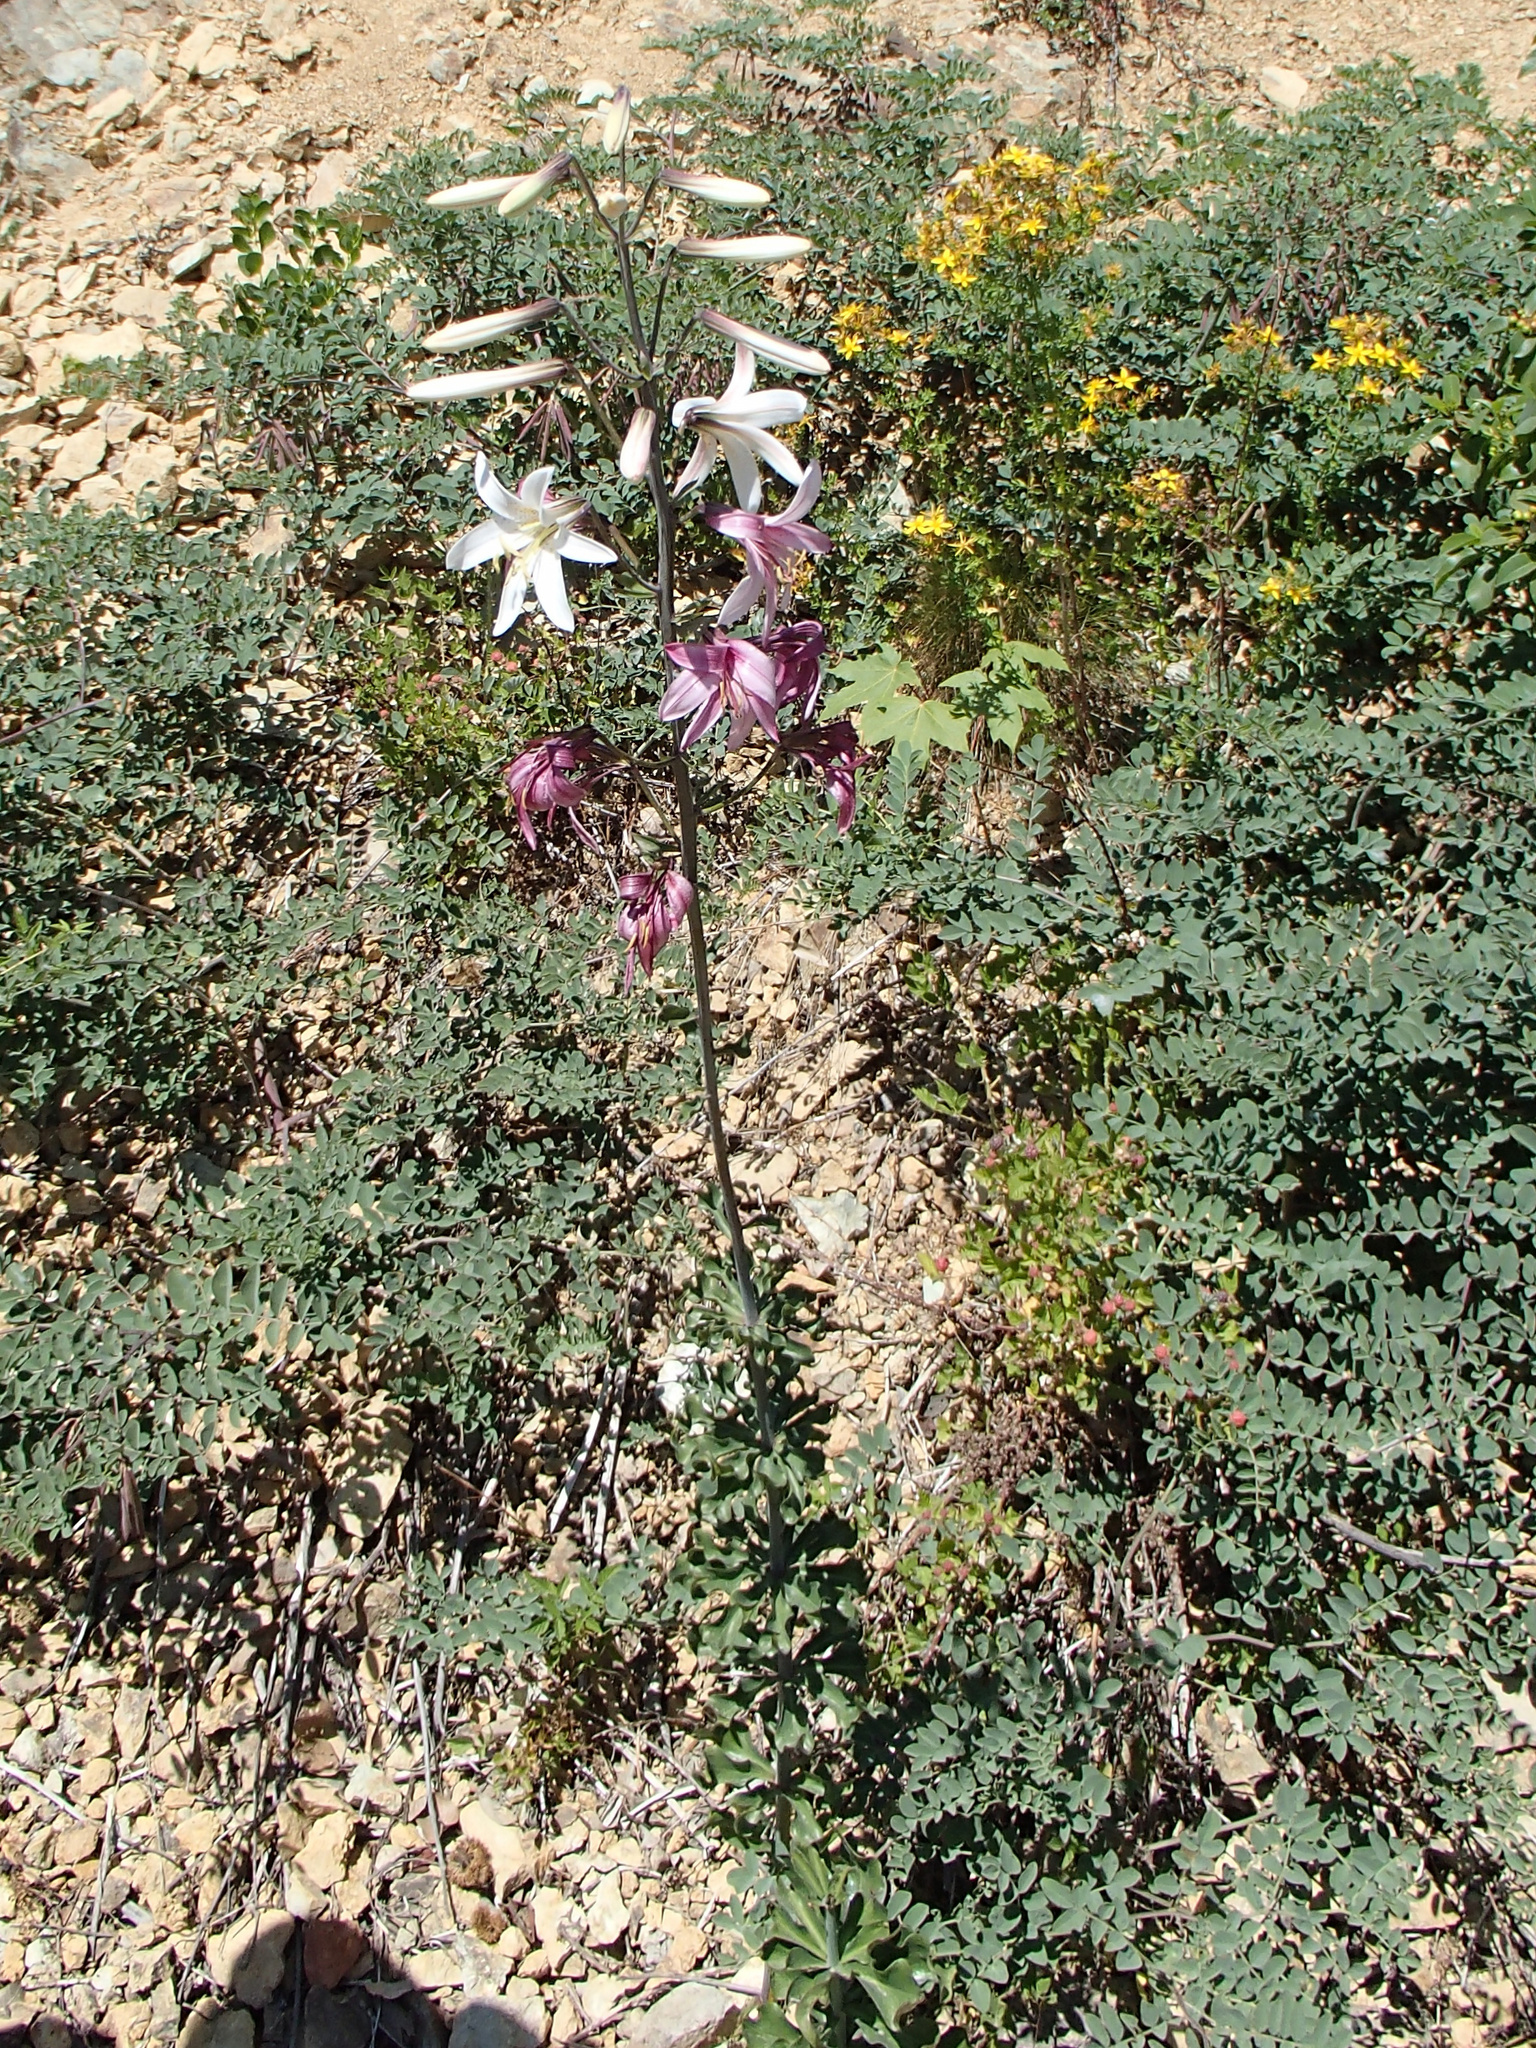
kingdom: Plantae
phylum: Tracheophyta
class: Liliopsida
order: Liliales
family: Liliaceae
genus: Lilium
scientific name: Lilium washingtonianum
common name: Washington lily
